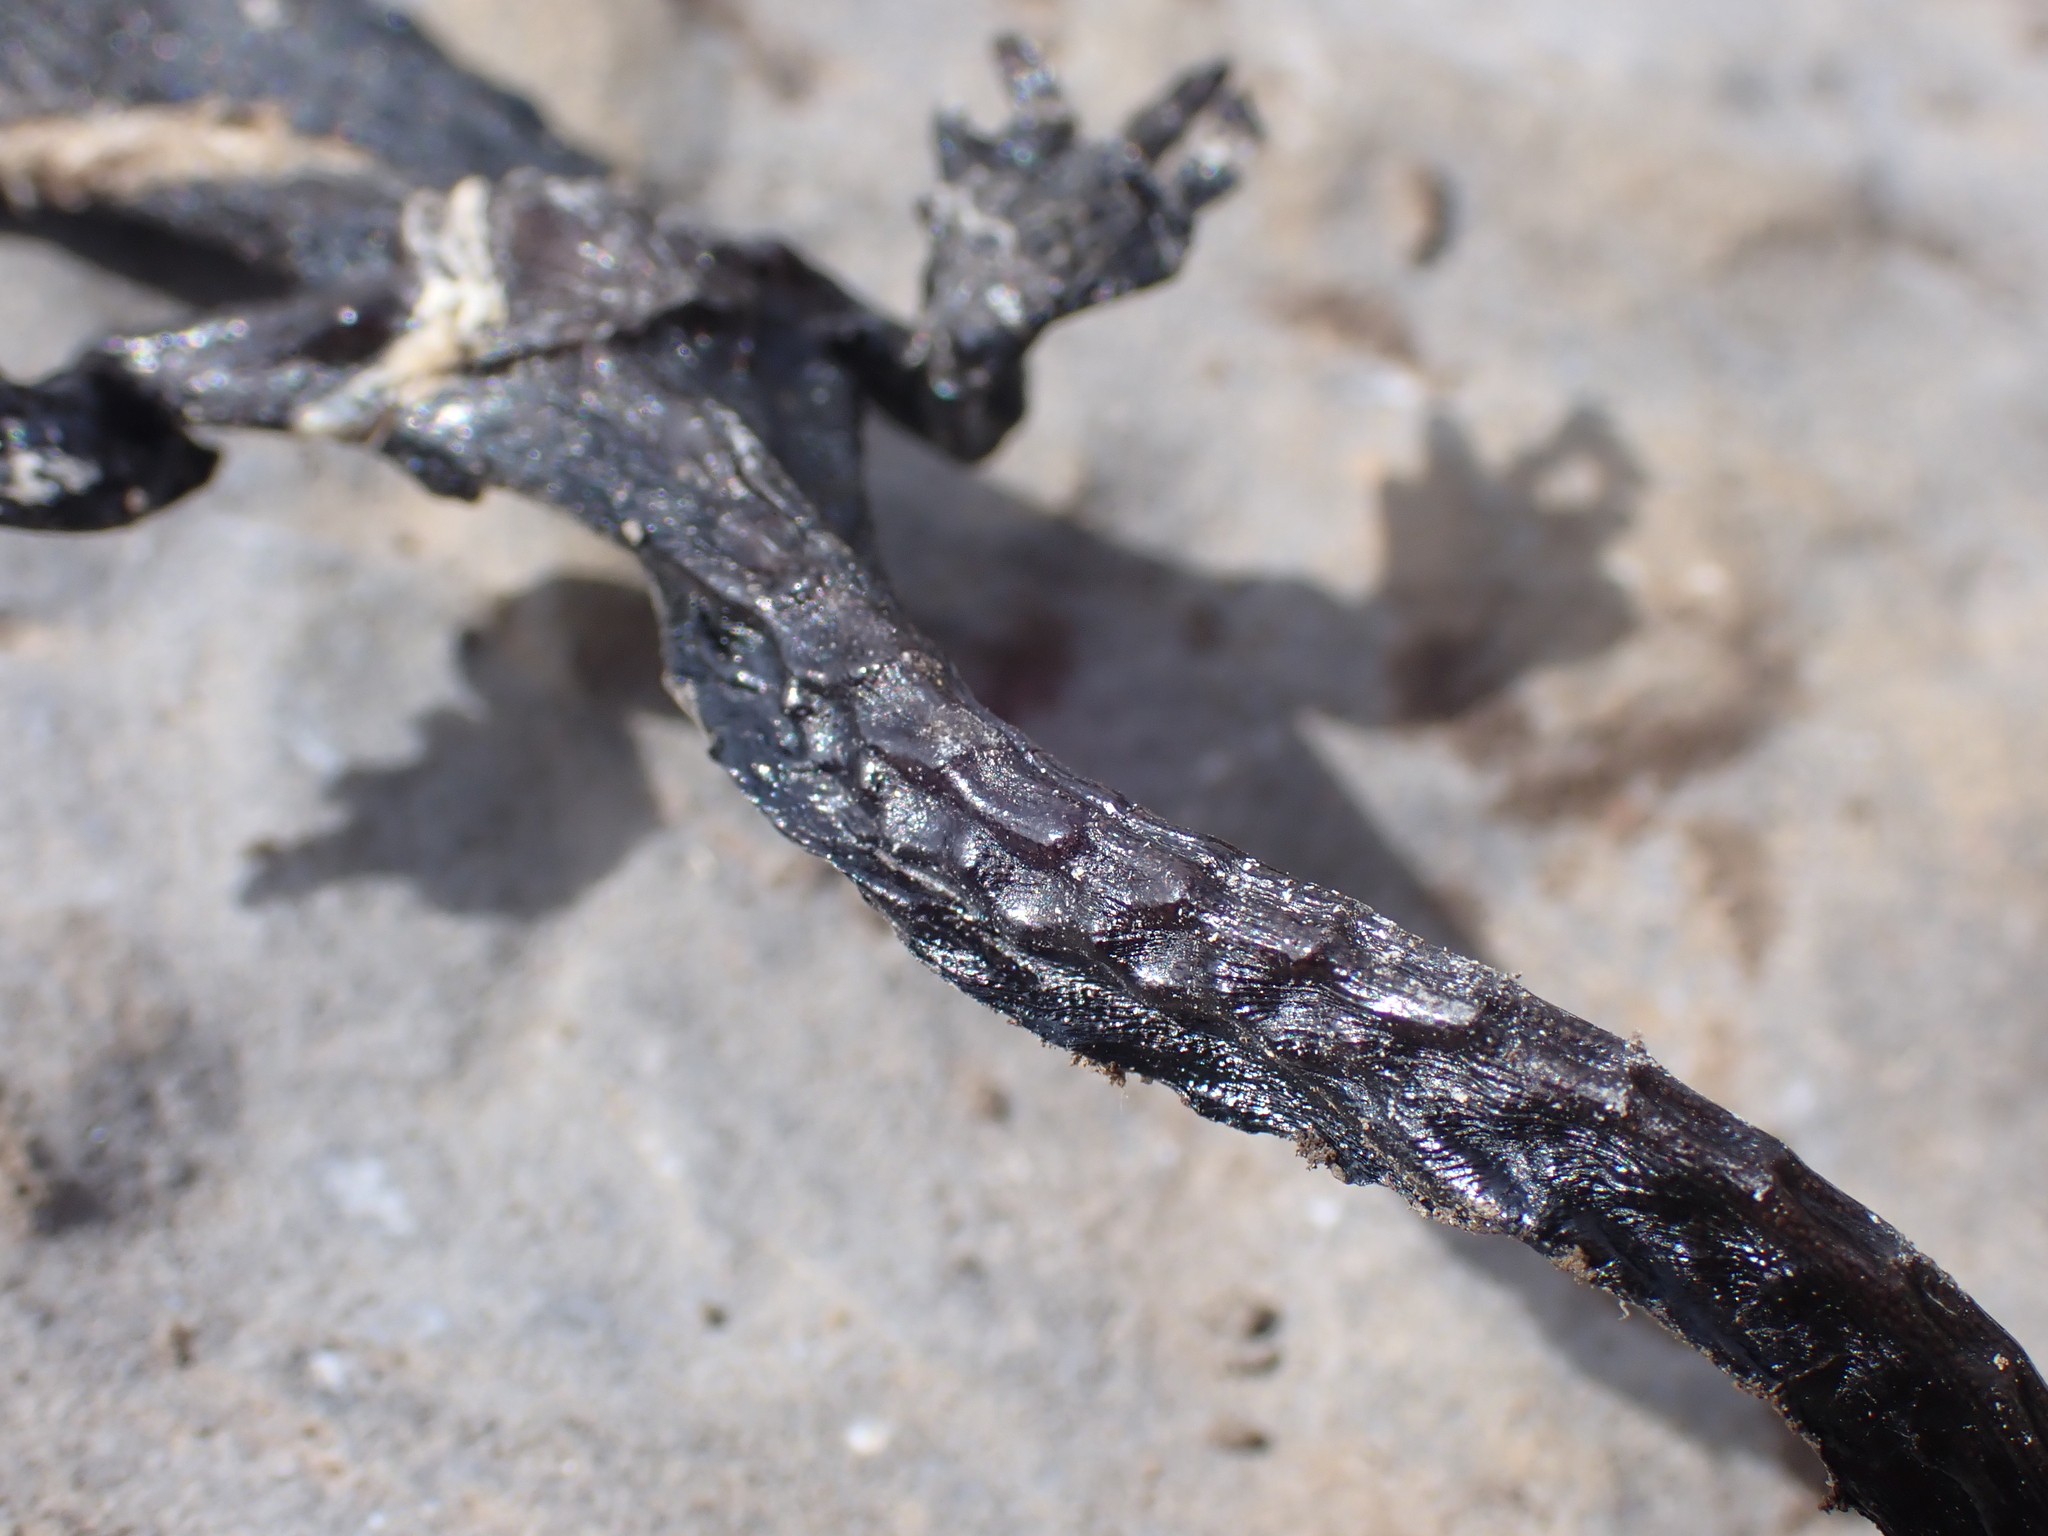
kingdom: Animalia
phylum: Chordata
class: Amphibia
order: Caudata
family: Salamandridae
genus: Salamandra
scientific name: Salamandra atra
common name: Alpine salamander
